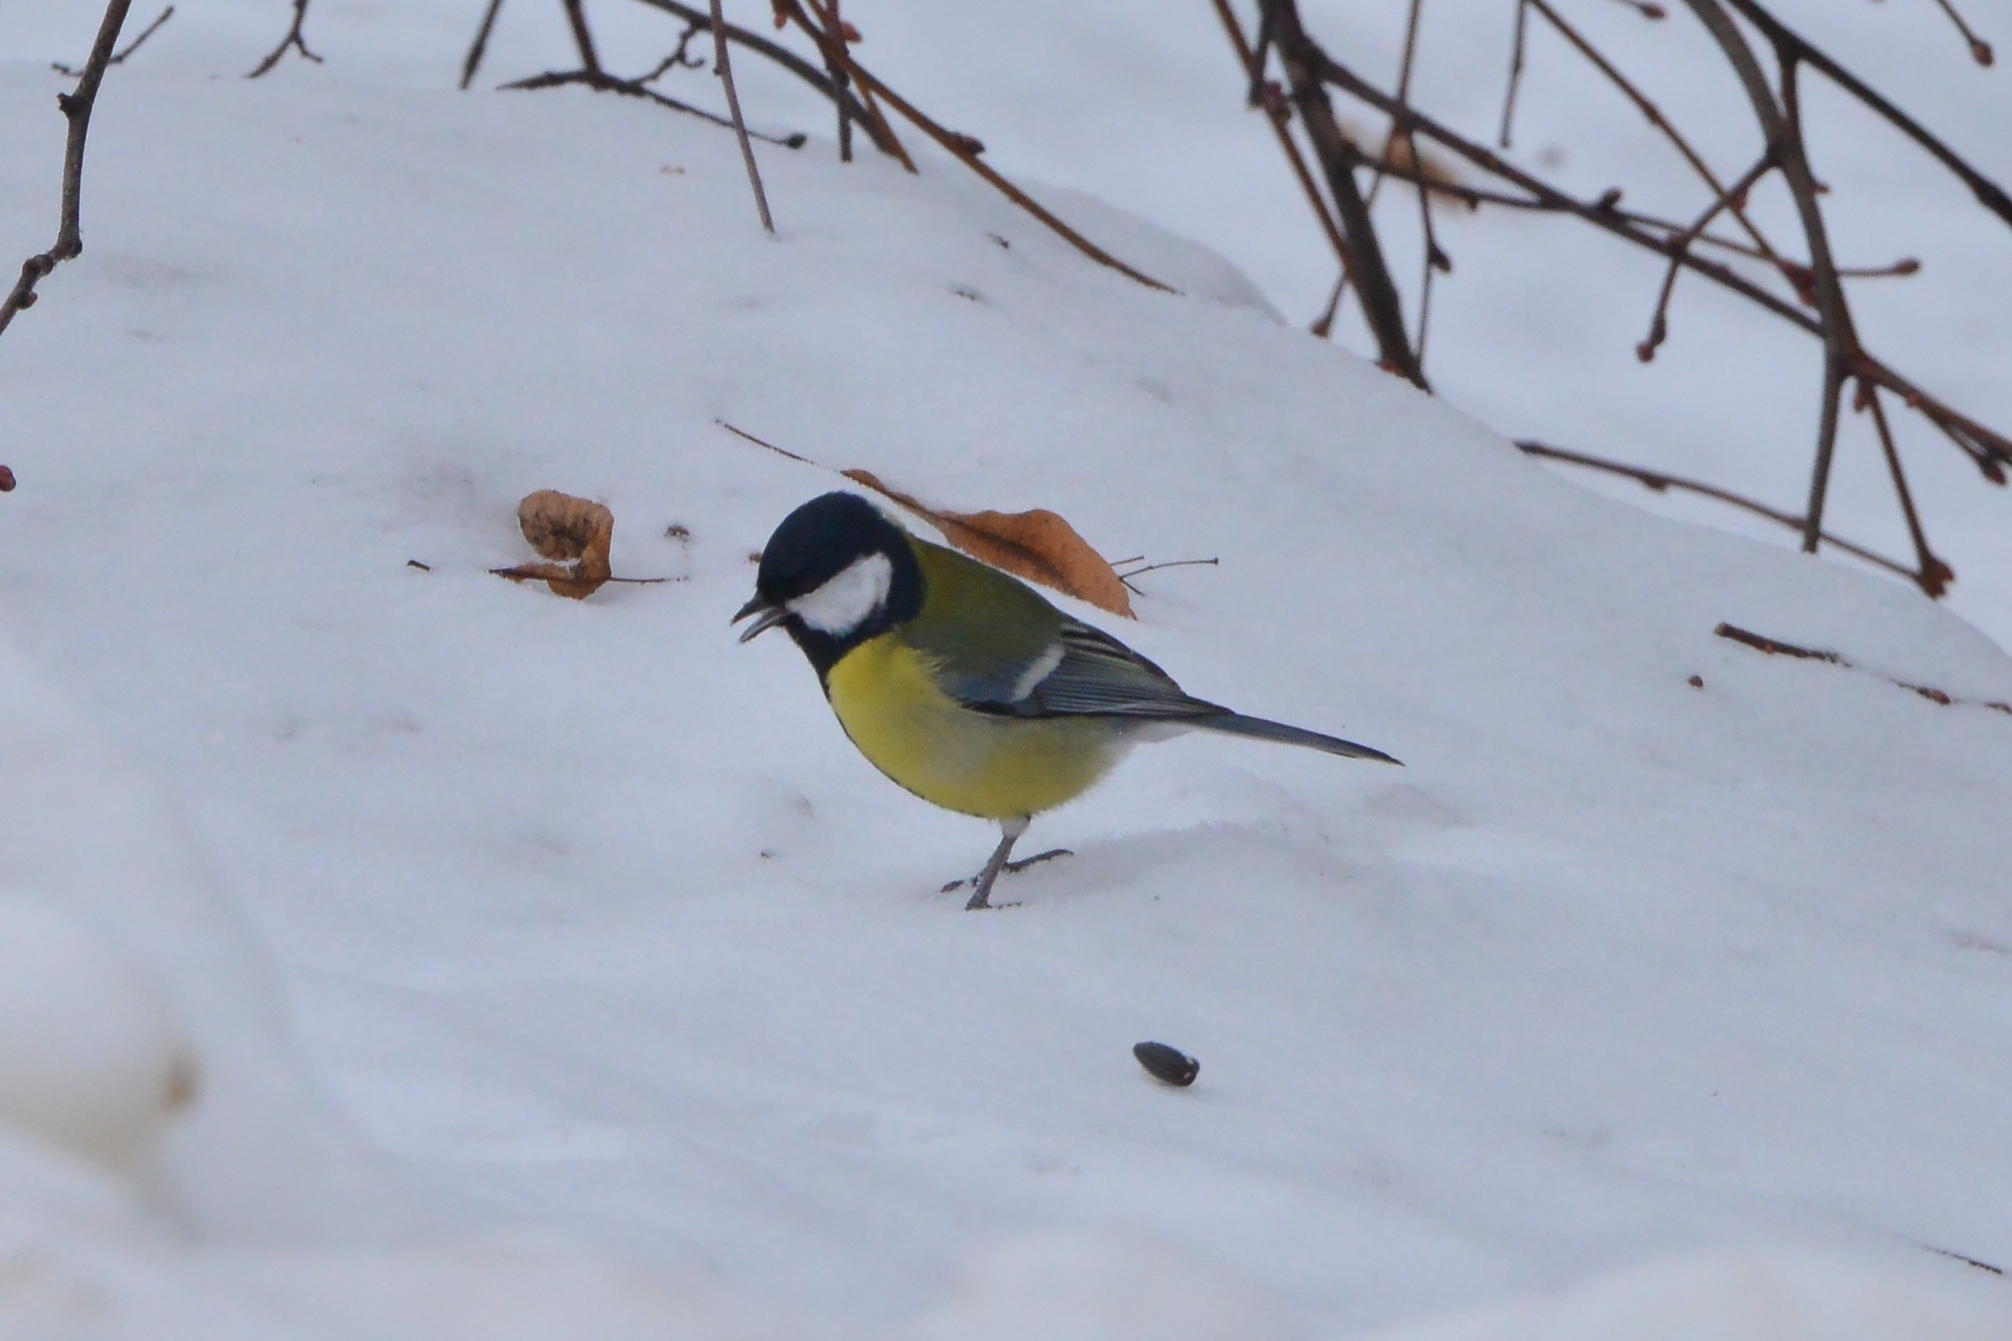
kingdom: Animalia
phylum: Chordata
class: Aves
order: Passeriformes
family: Paridae
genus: Parus
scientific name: Parus major
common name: Great tit
